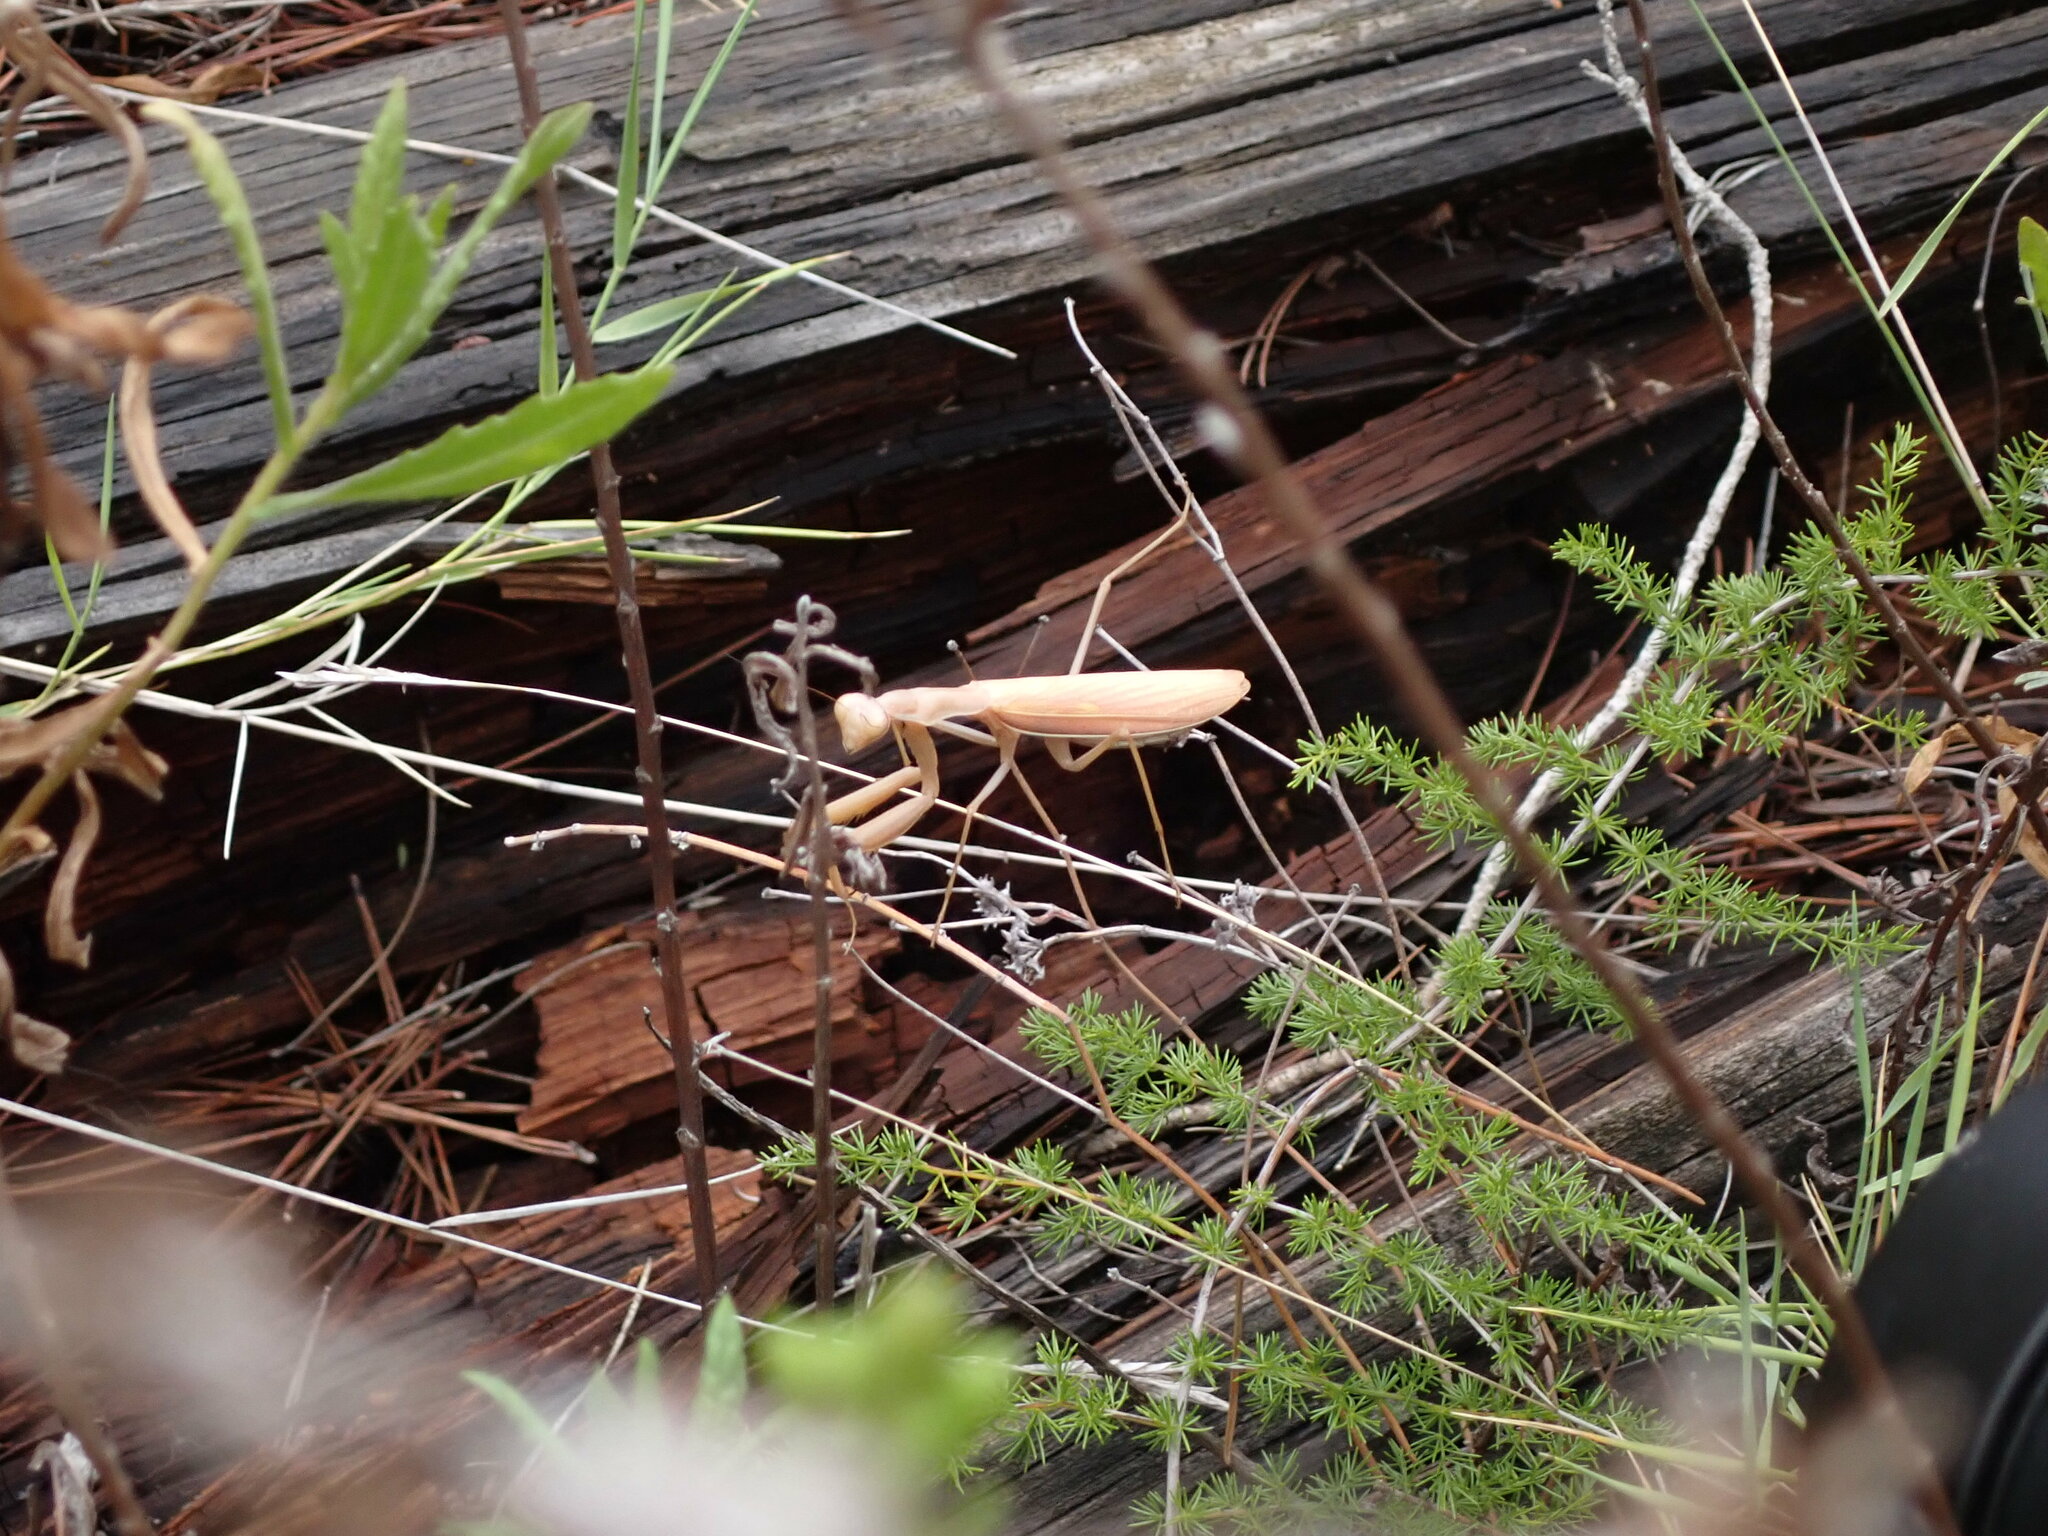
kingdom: Animalia
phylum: Arthropoda
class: Insecta
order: Mantodea
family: Mantidae
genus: Mantis
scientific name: Mantis religiosa
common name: Praying mantis
